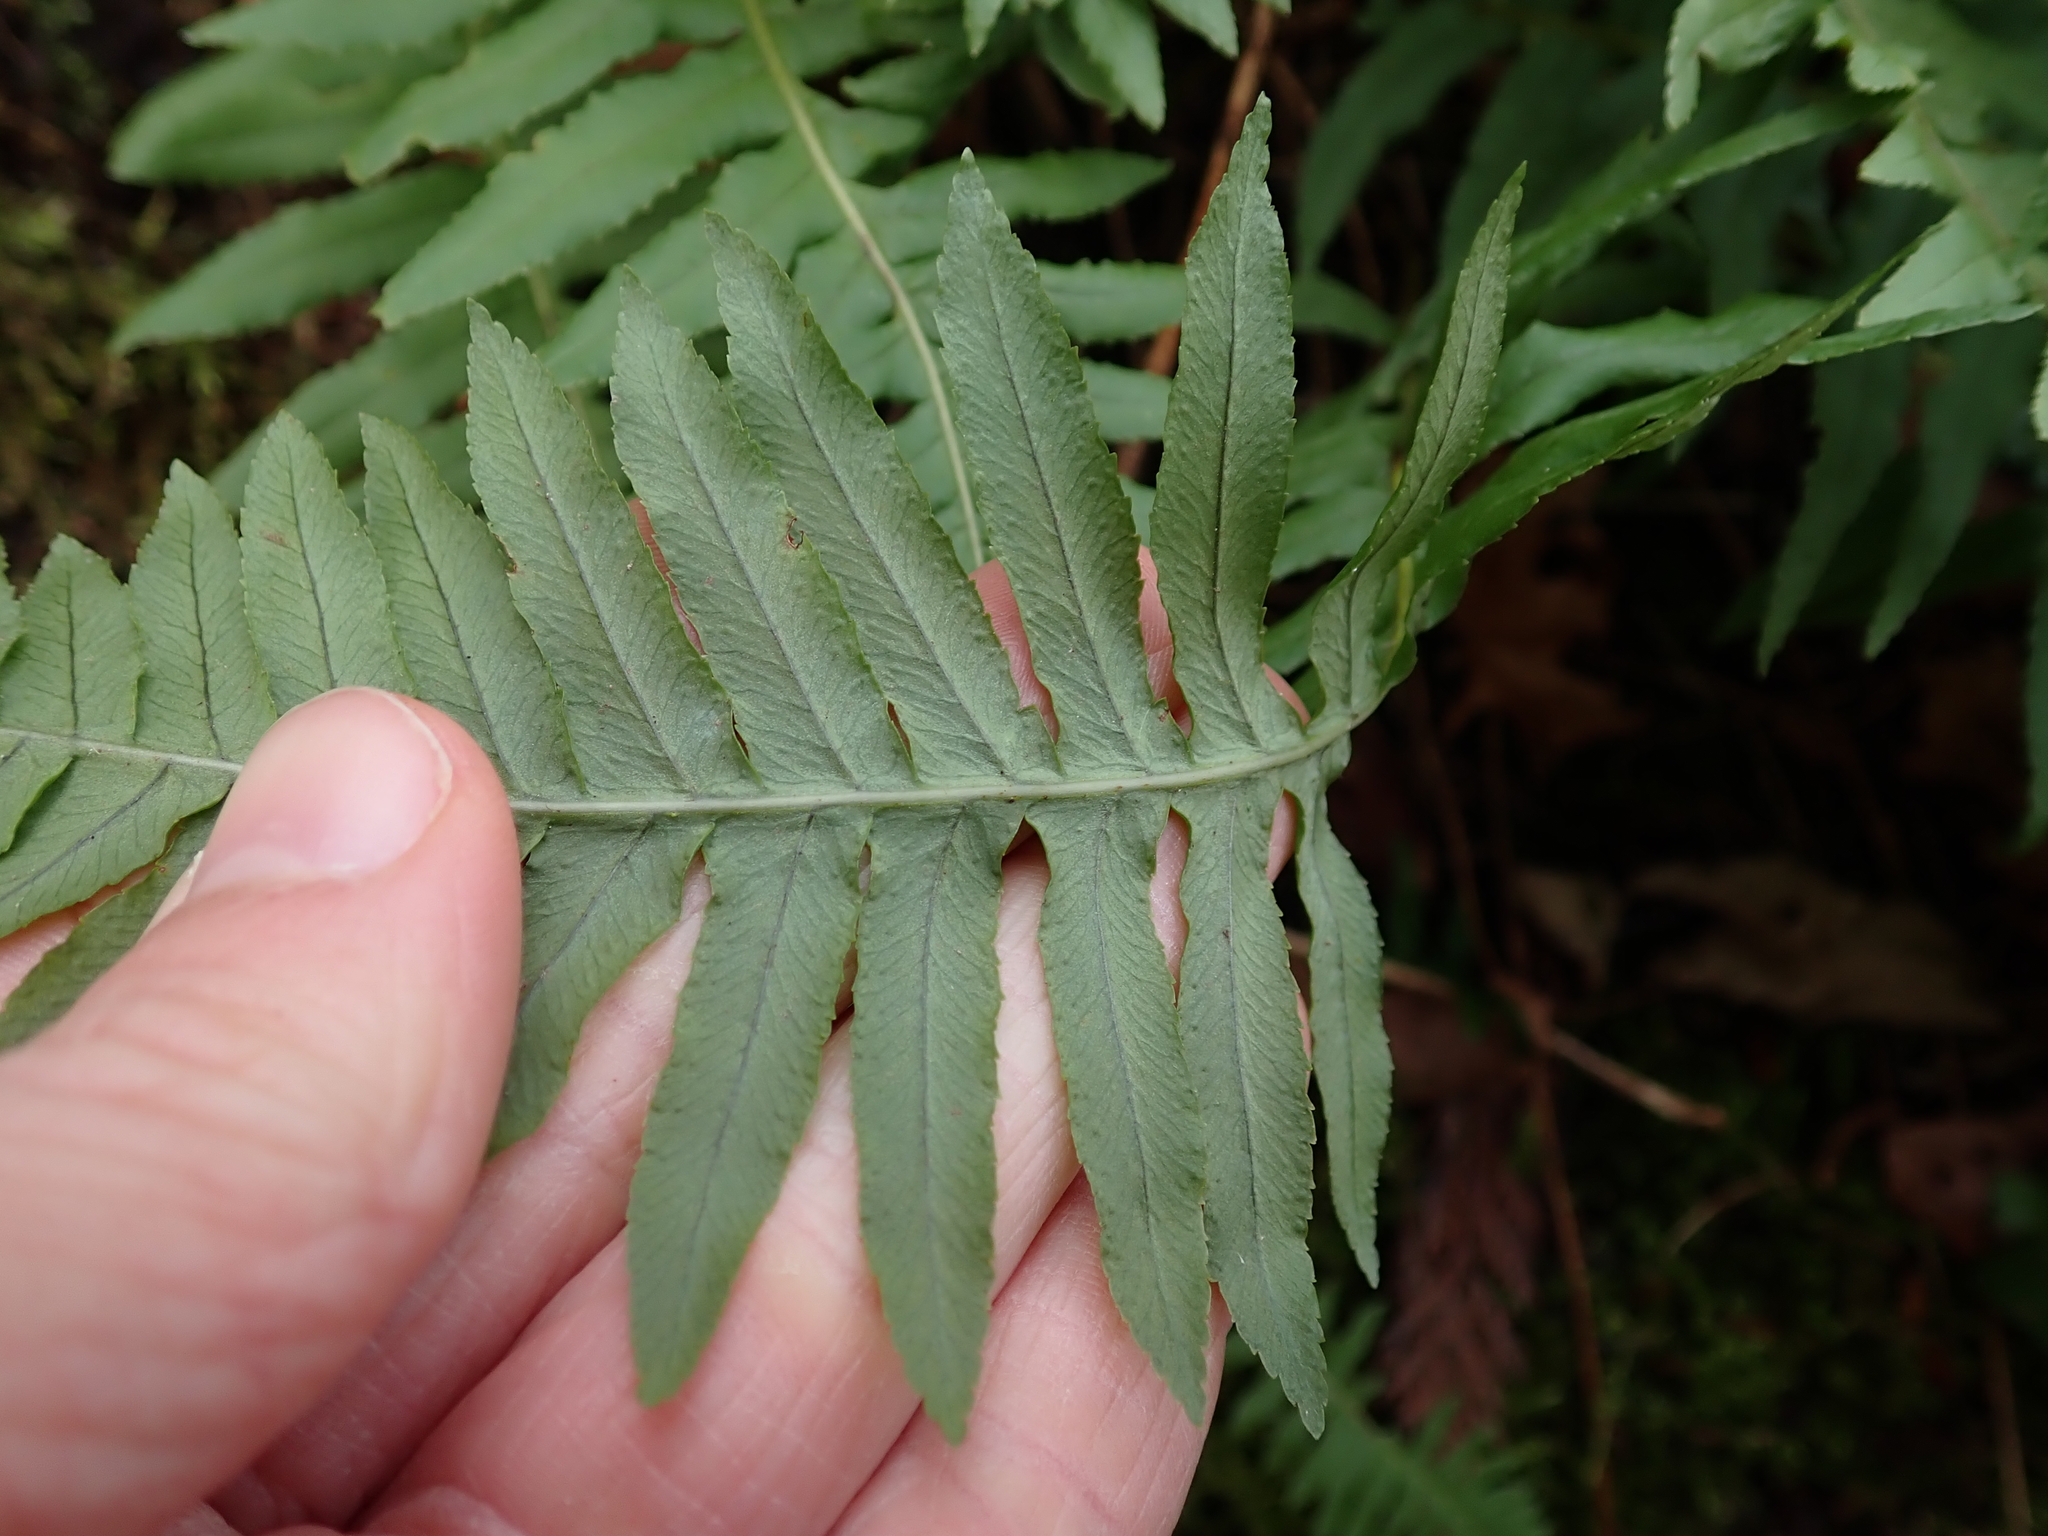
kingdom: Plantae
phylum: Tracheophyta
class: Polypodiopsida
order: Polypodiales
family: Polypodiaceae
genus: Polypodium
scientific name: Polypodium glycyrrhiza
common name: Licorice fern
